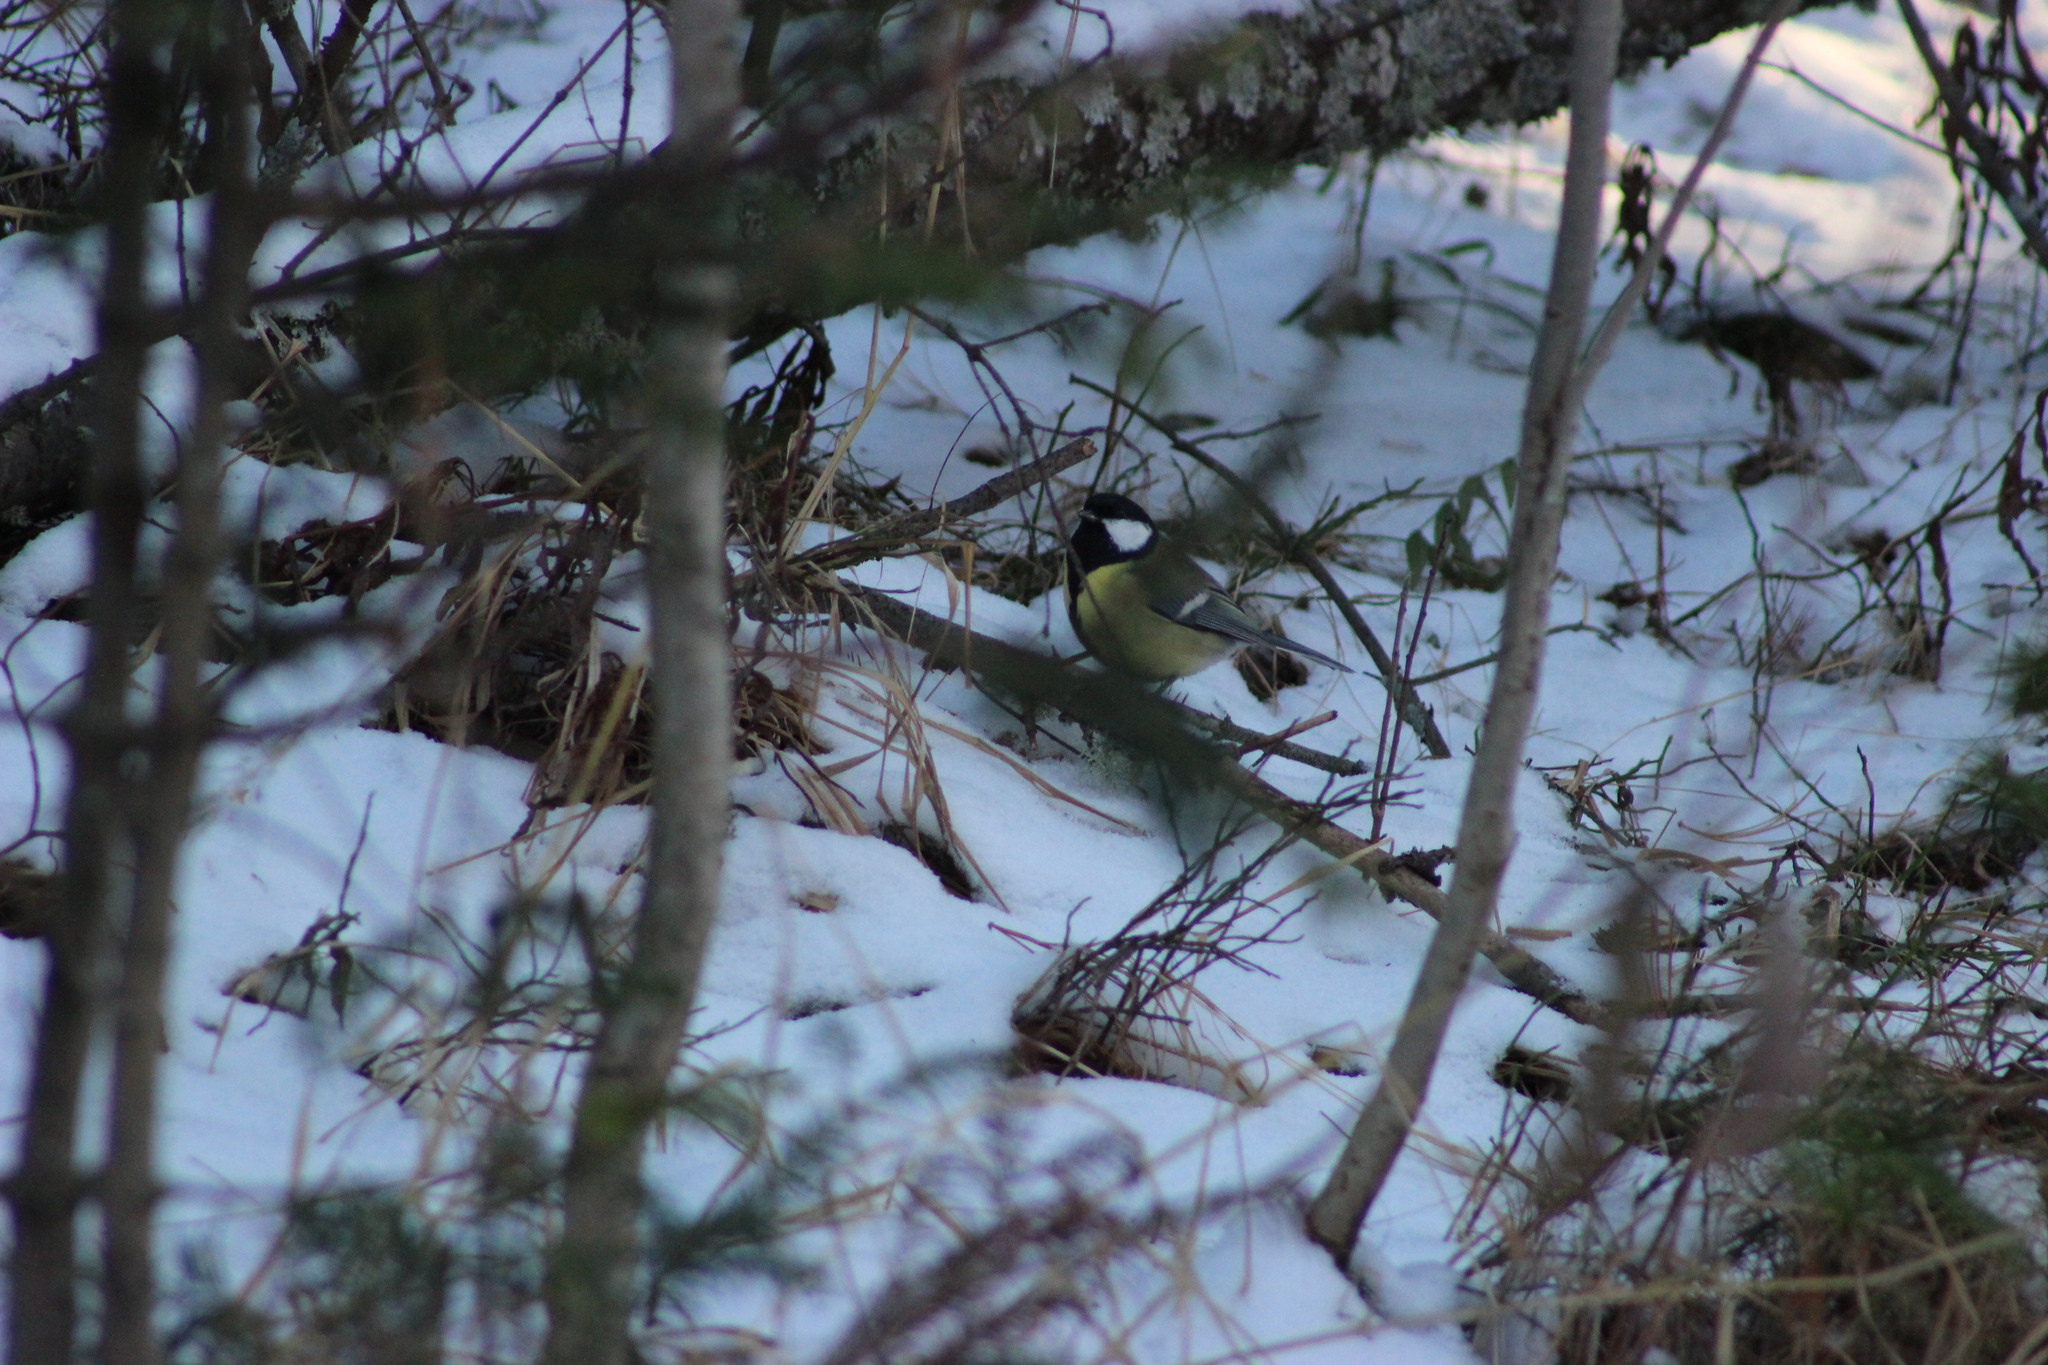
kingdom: Animalia
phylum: Chordata
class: Aves
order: Passeriformes
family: Paridae
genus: Parus
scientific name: Parus major
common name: Great tit
